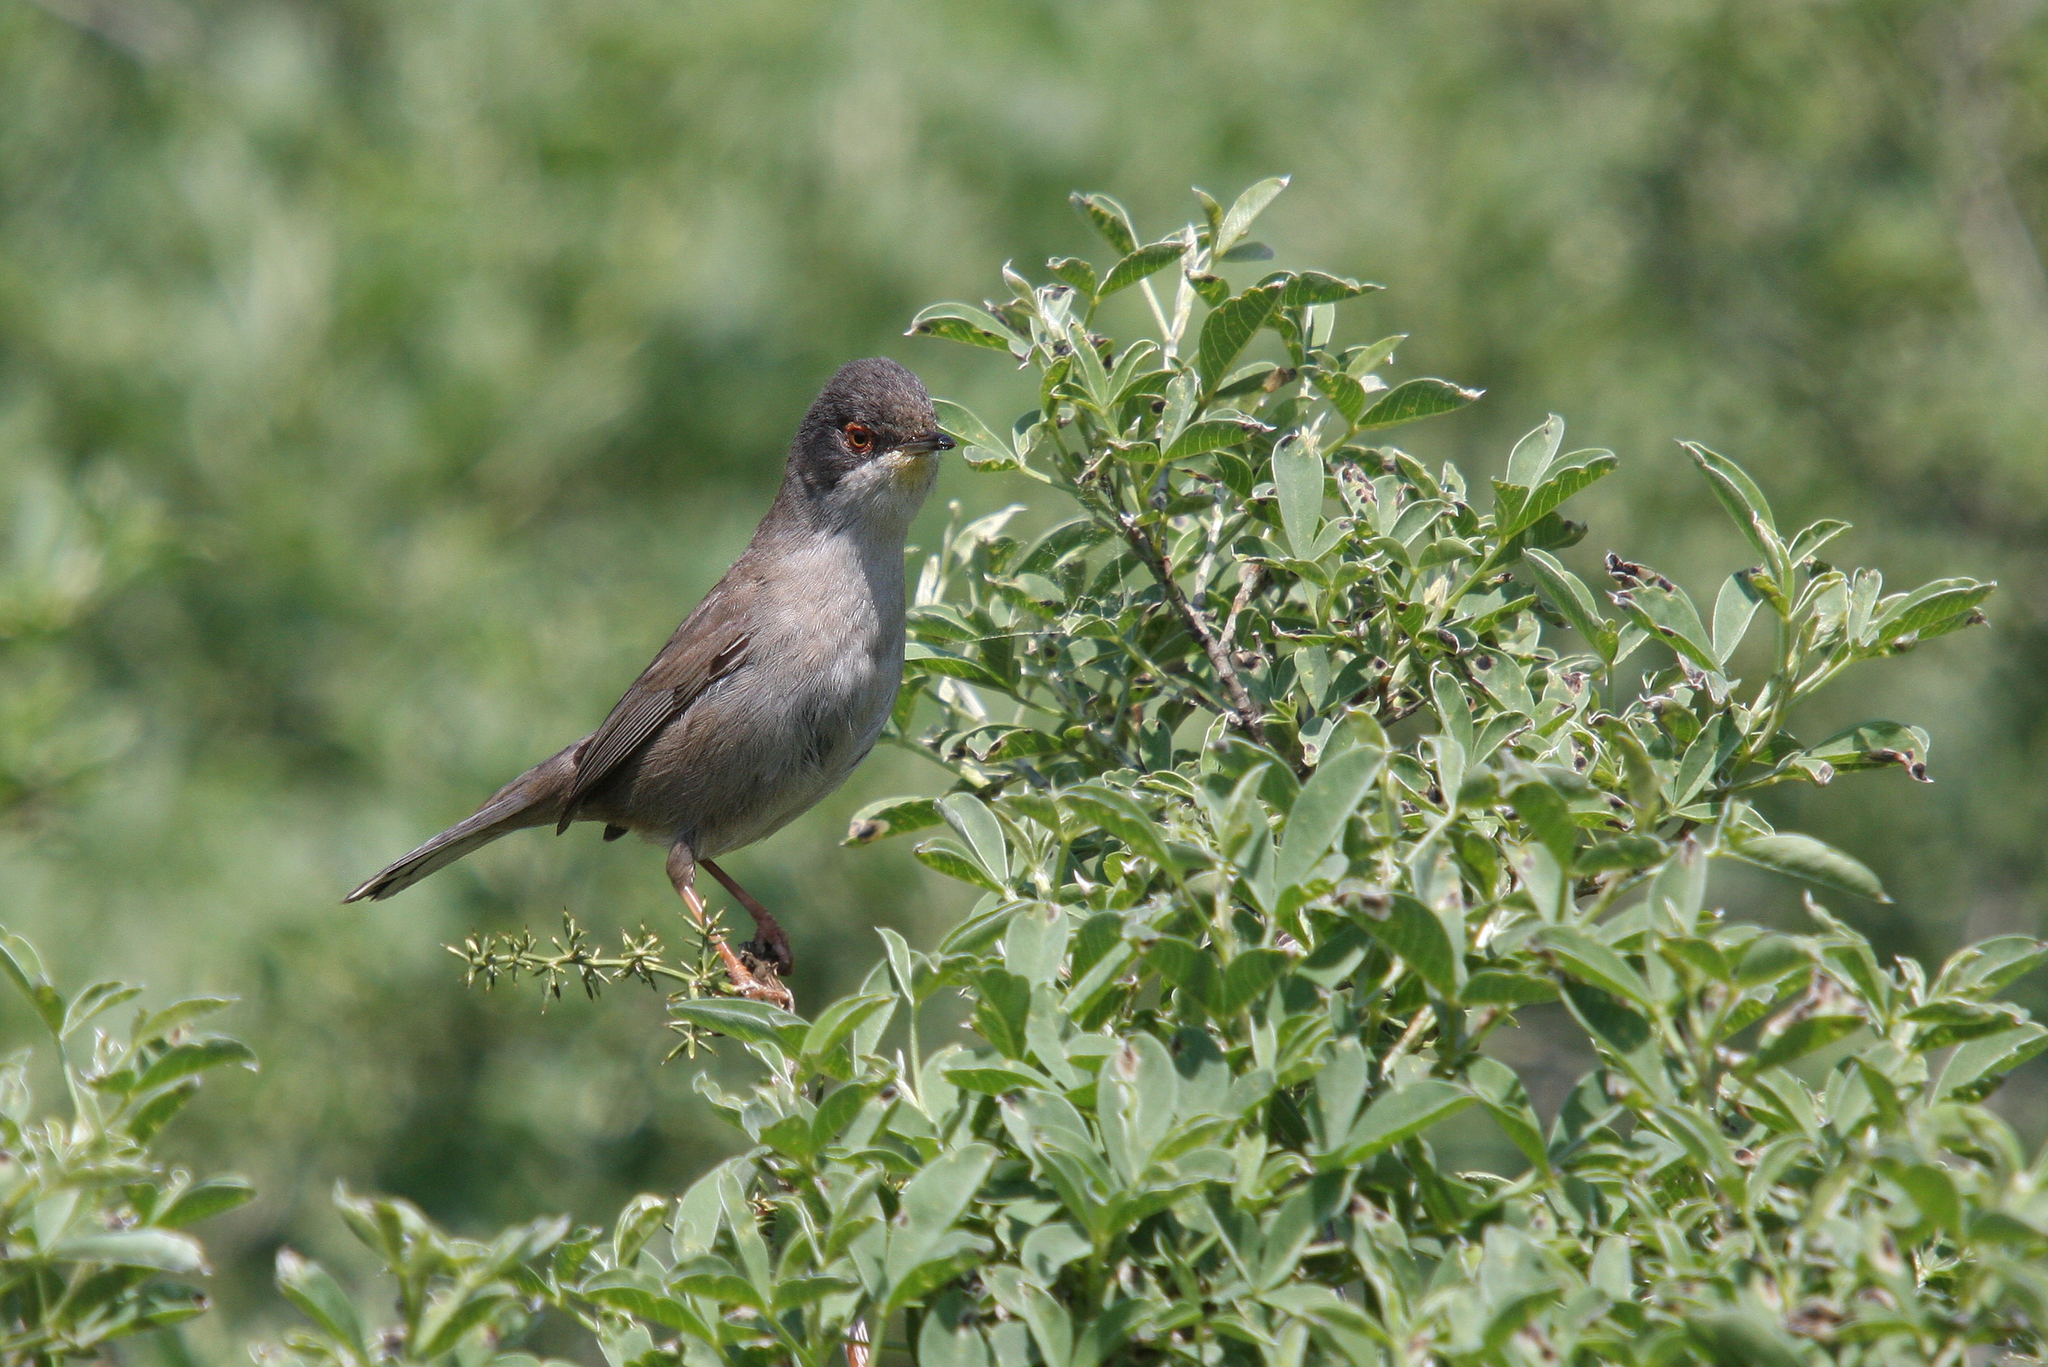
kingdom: Animalia
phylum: Chordata
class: Aves
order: Passeriformes
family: Sylviidae
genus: Curruca
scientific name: Curruca melanocephala
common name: Sardinian warbler
